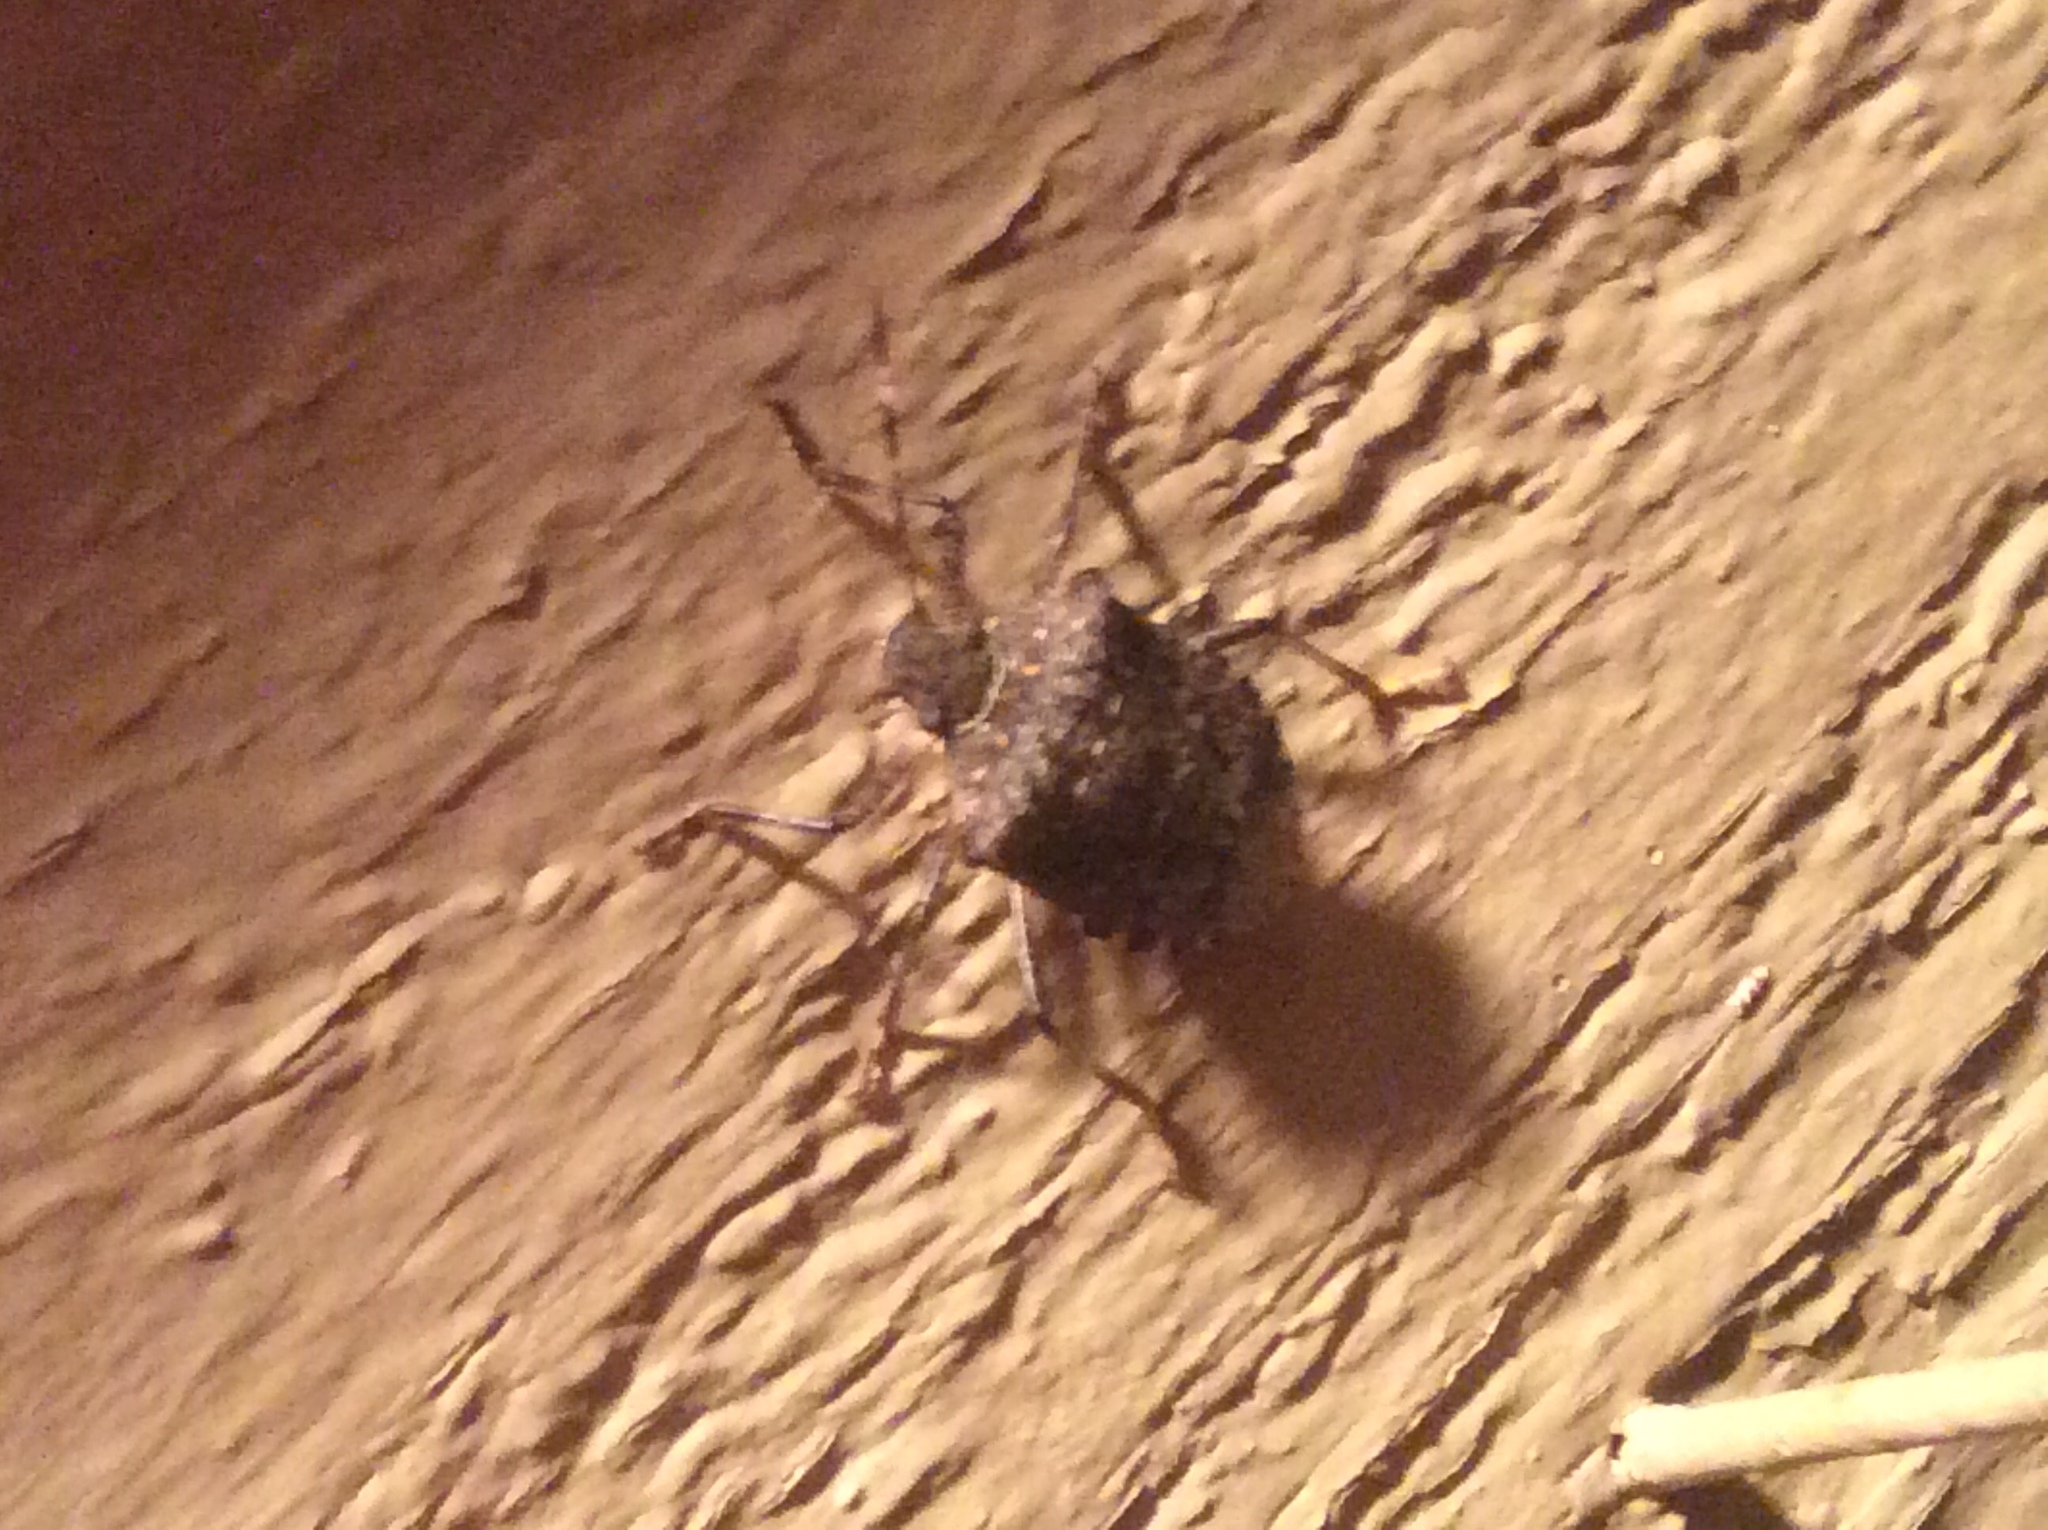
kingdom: Animalia
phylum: Arthropoda
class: Insecta
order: Hemiptera
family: Pentatomidae
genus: Halyomorpha
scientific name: Halyomorpha halys
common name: Brown marmorated stink bug
